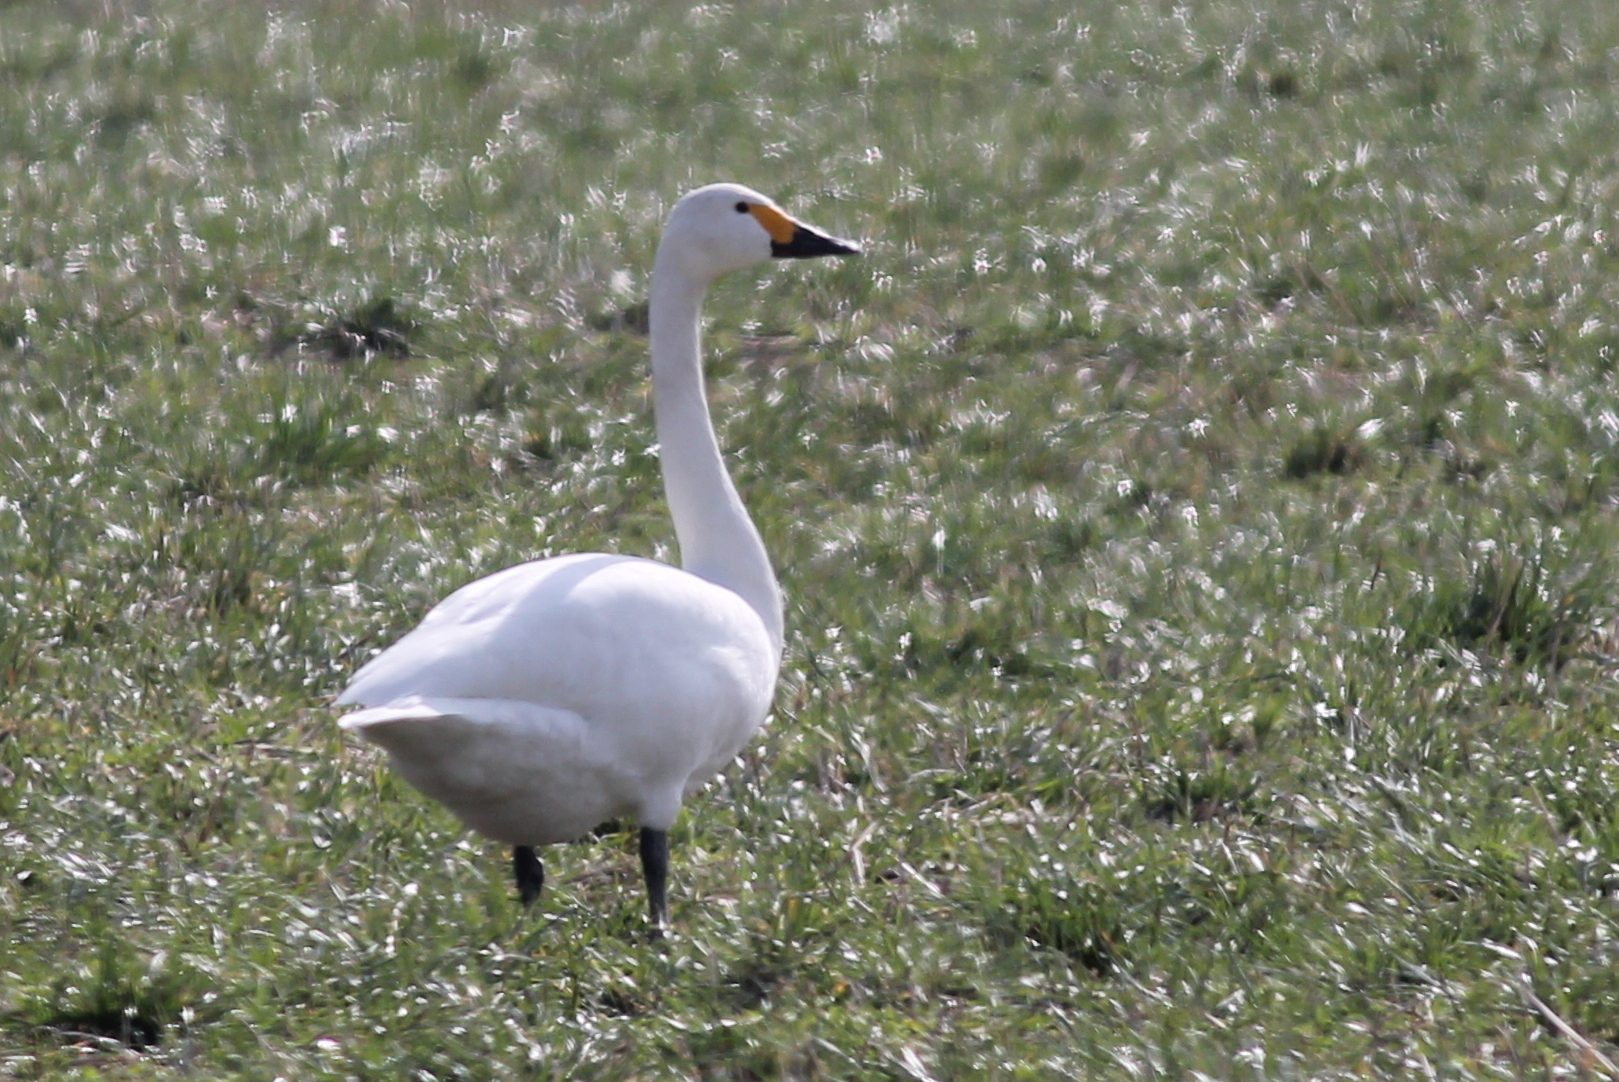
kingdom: Animalia
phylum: Chordata
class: Aves
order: Anseriformes
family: Anatidae
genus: Cygnus
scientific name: Cygnus columbianus
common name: Tundra swan
